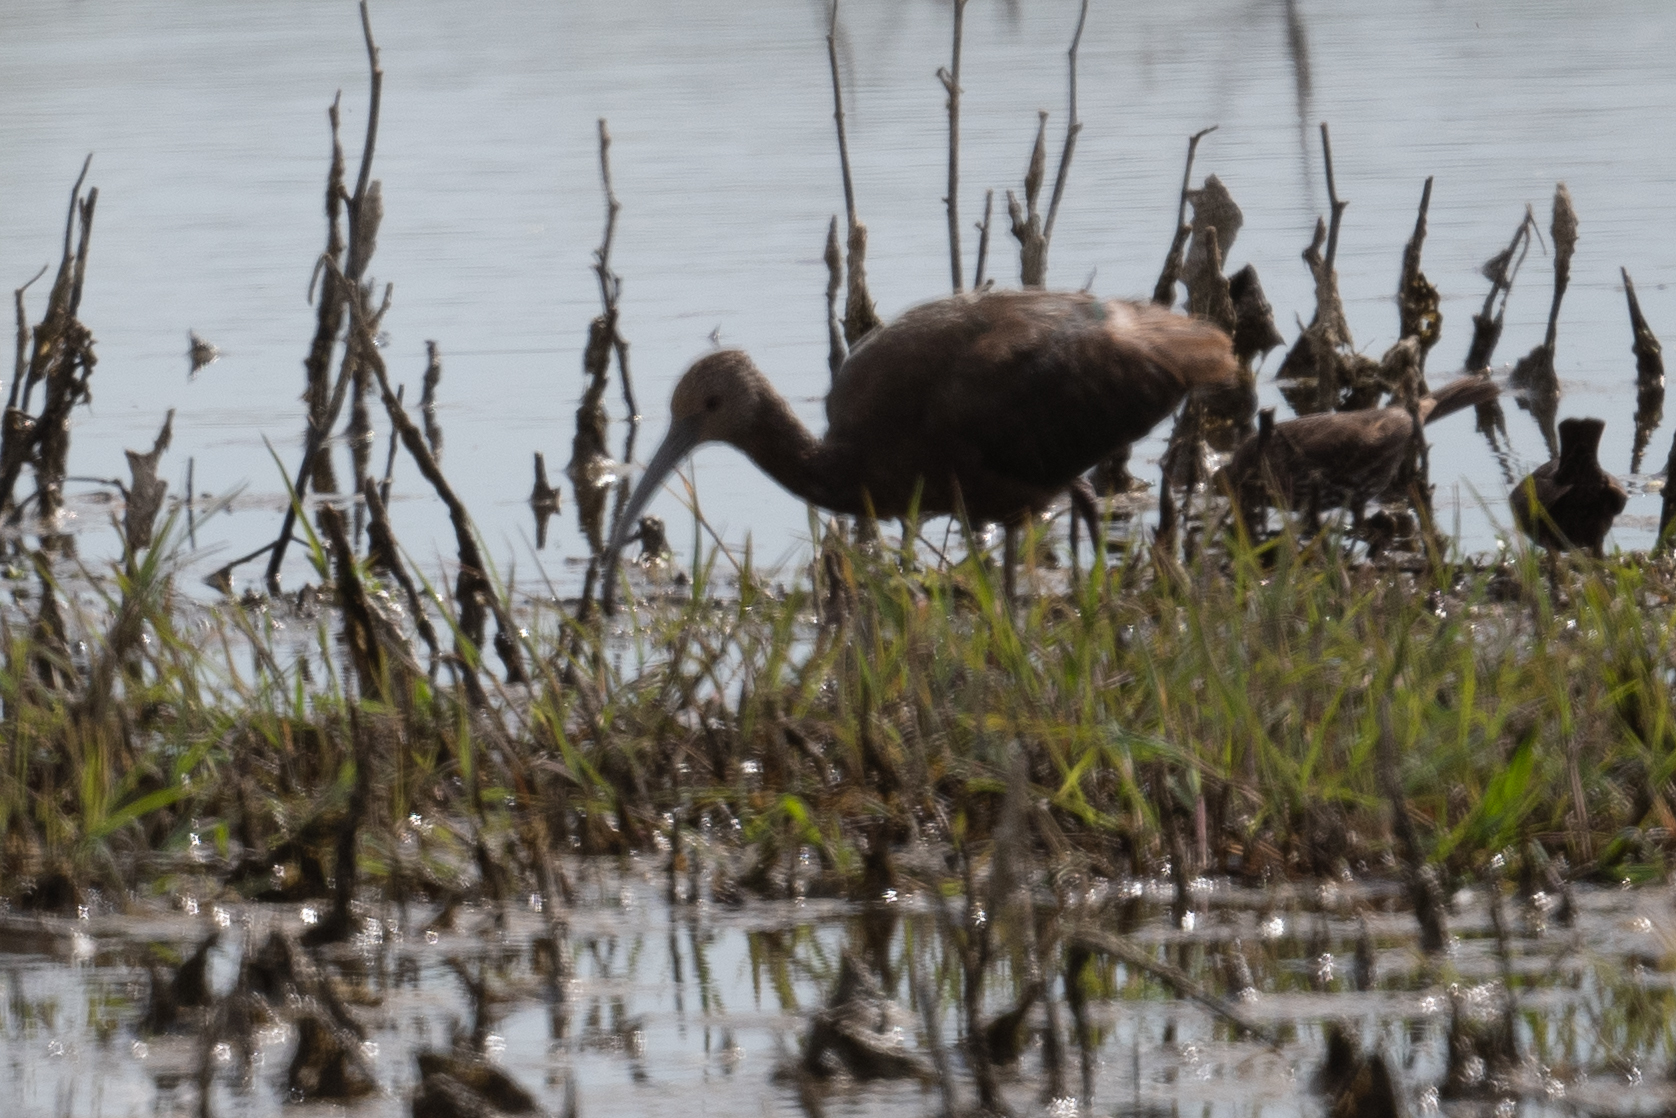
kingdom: Animalia
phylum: Chordata
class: Aves
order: Pelecaniformes
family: Threskiornithidae
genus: Plegadis
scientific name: Plegadis chihi
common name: White-faced ibis
